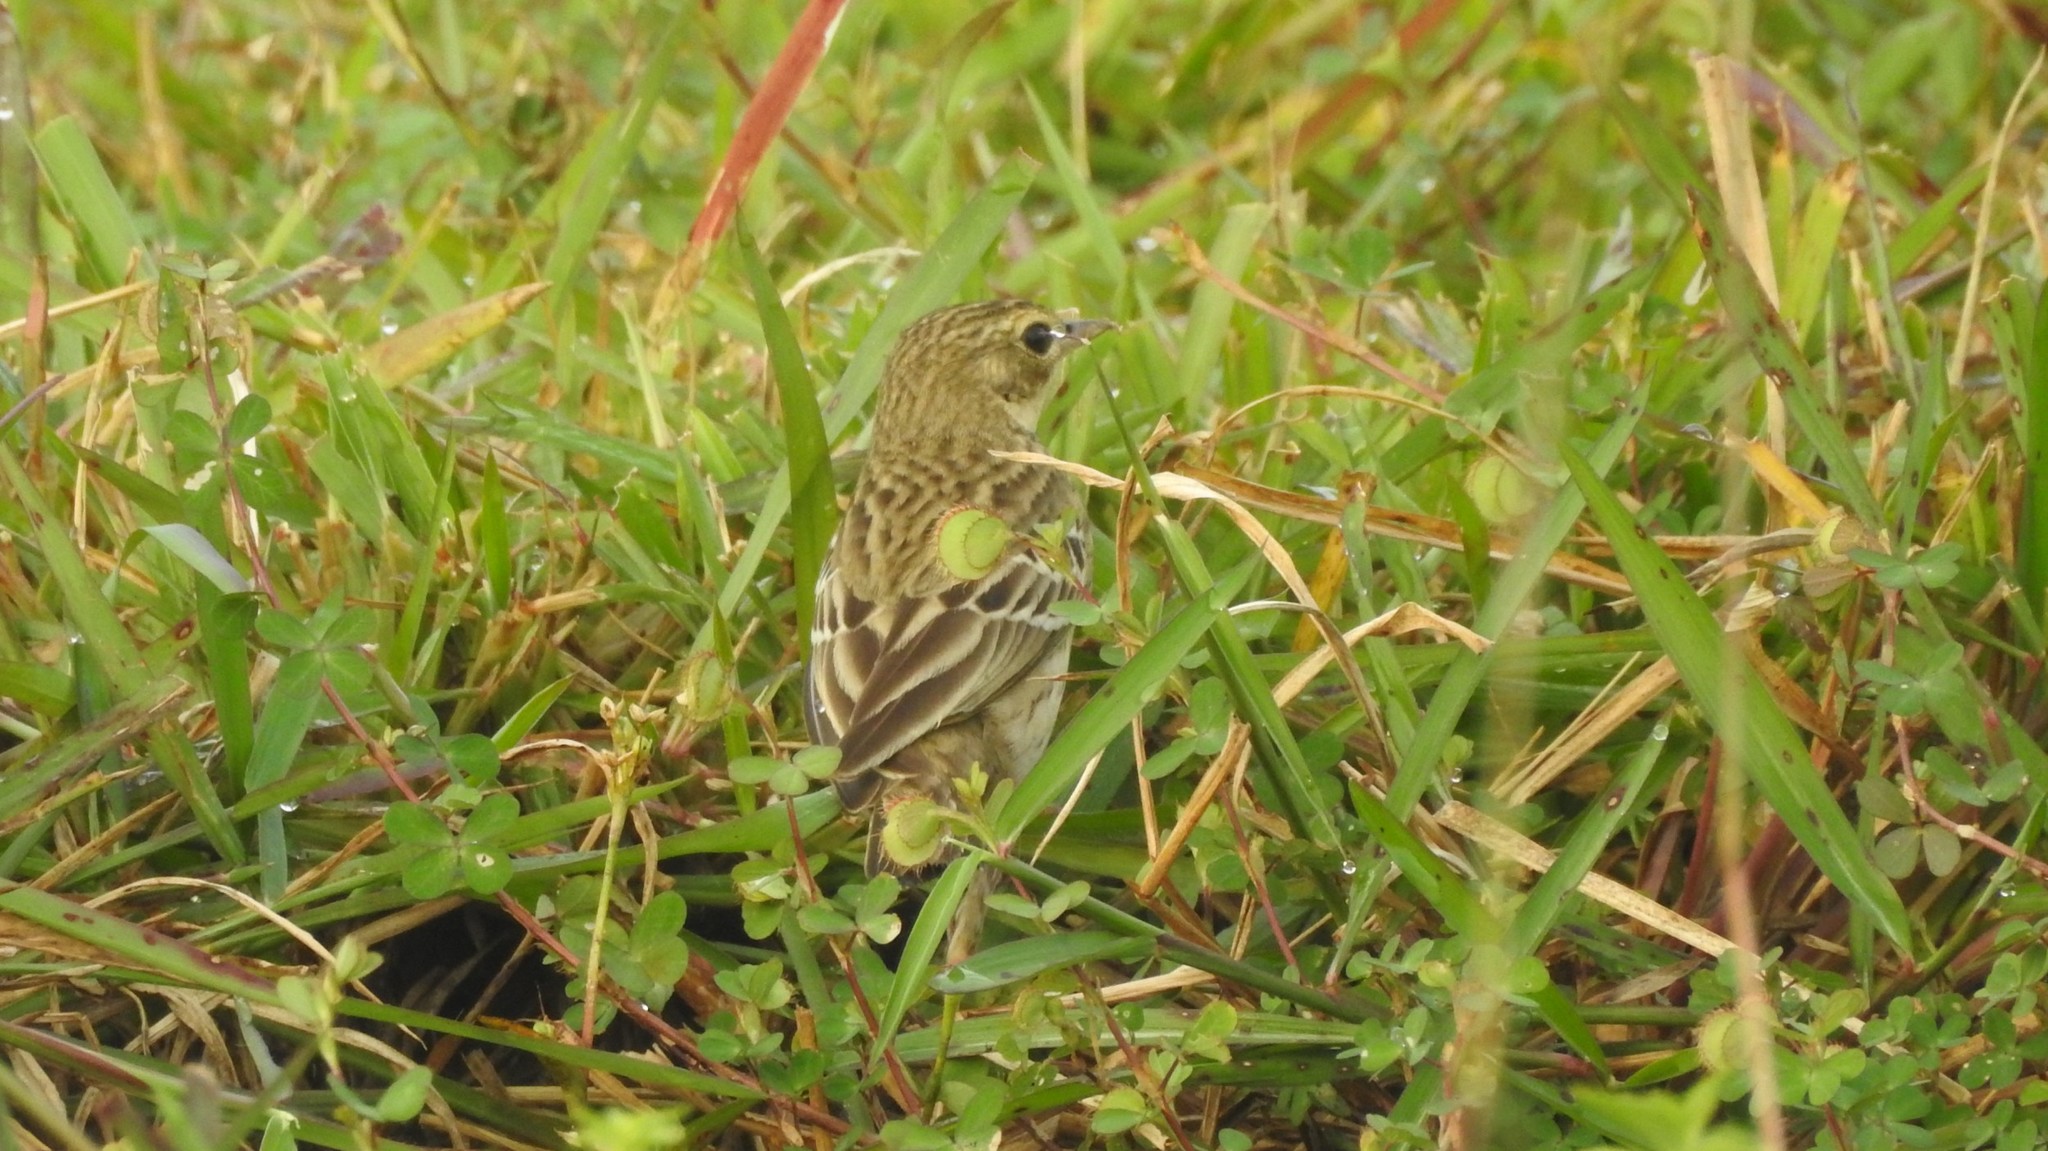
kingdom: Animalia
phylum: Chordata
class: Aves
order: Passeriformes
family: Motacillidae
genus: Anthus
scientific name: Anthus trivialis
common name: Tree pipit
